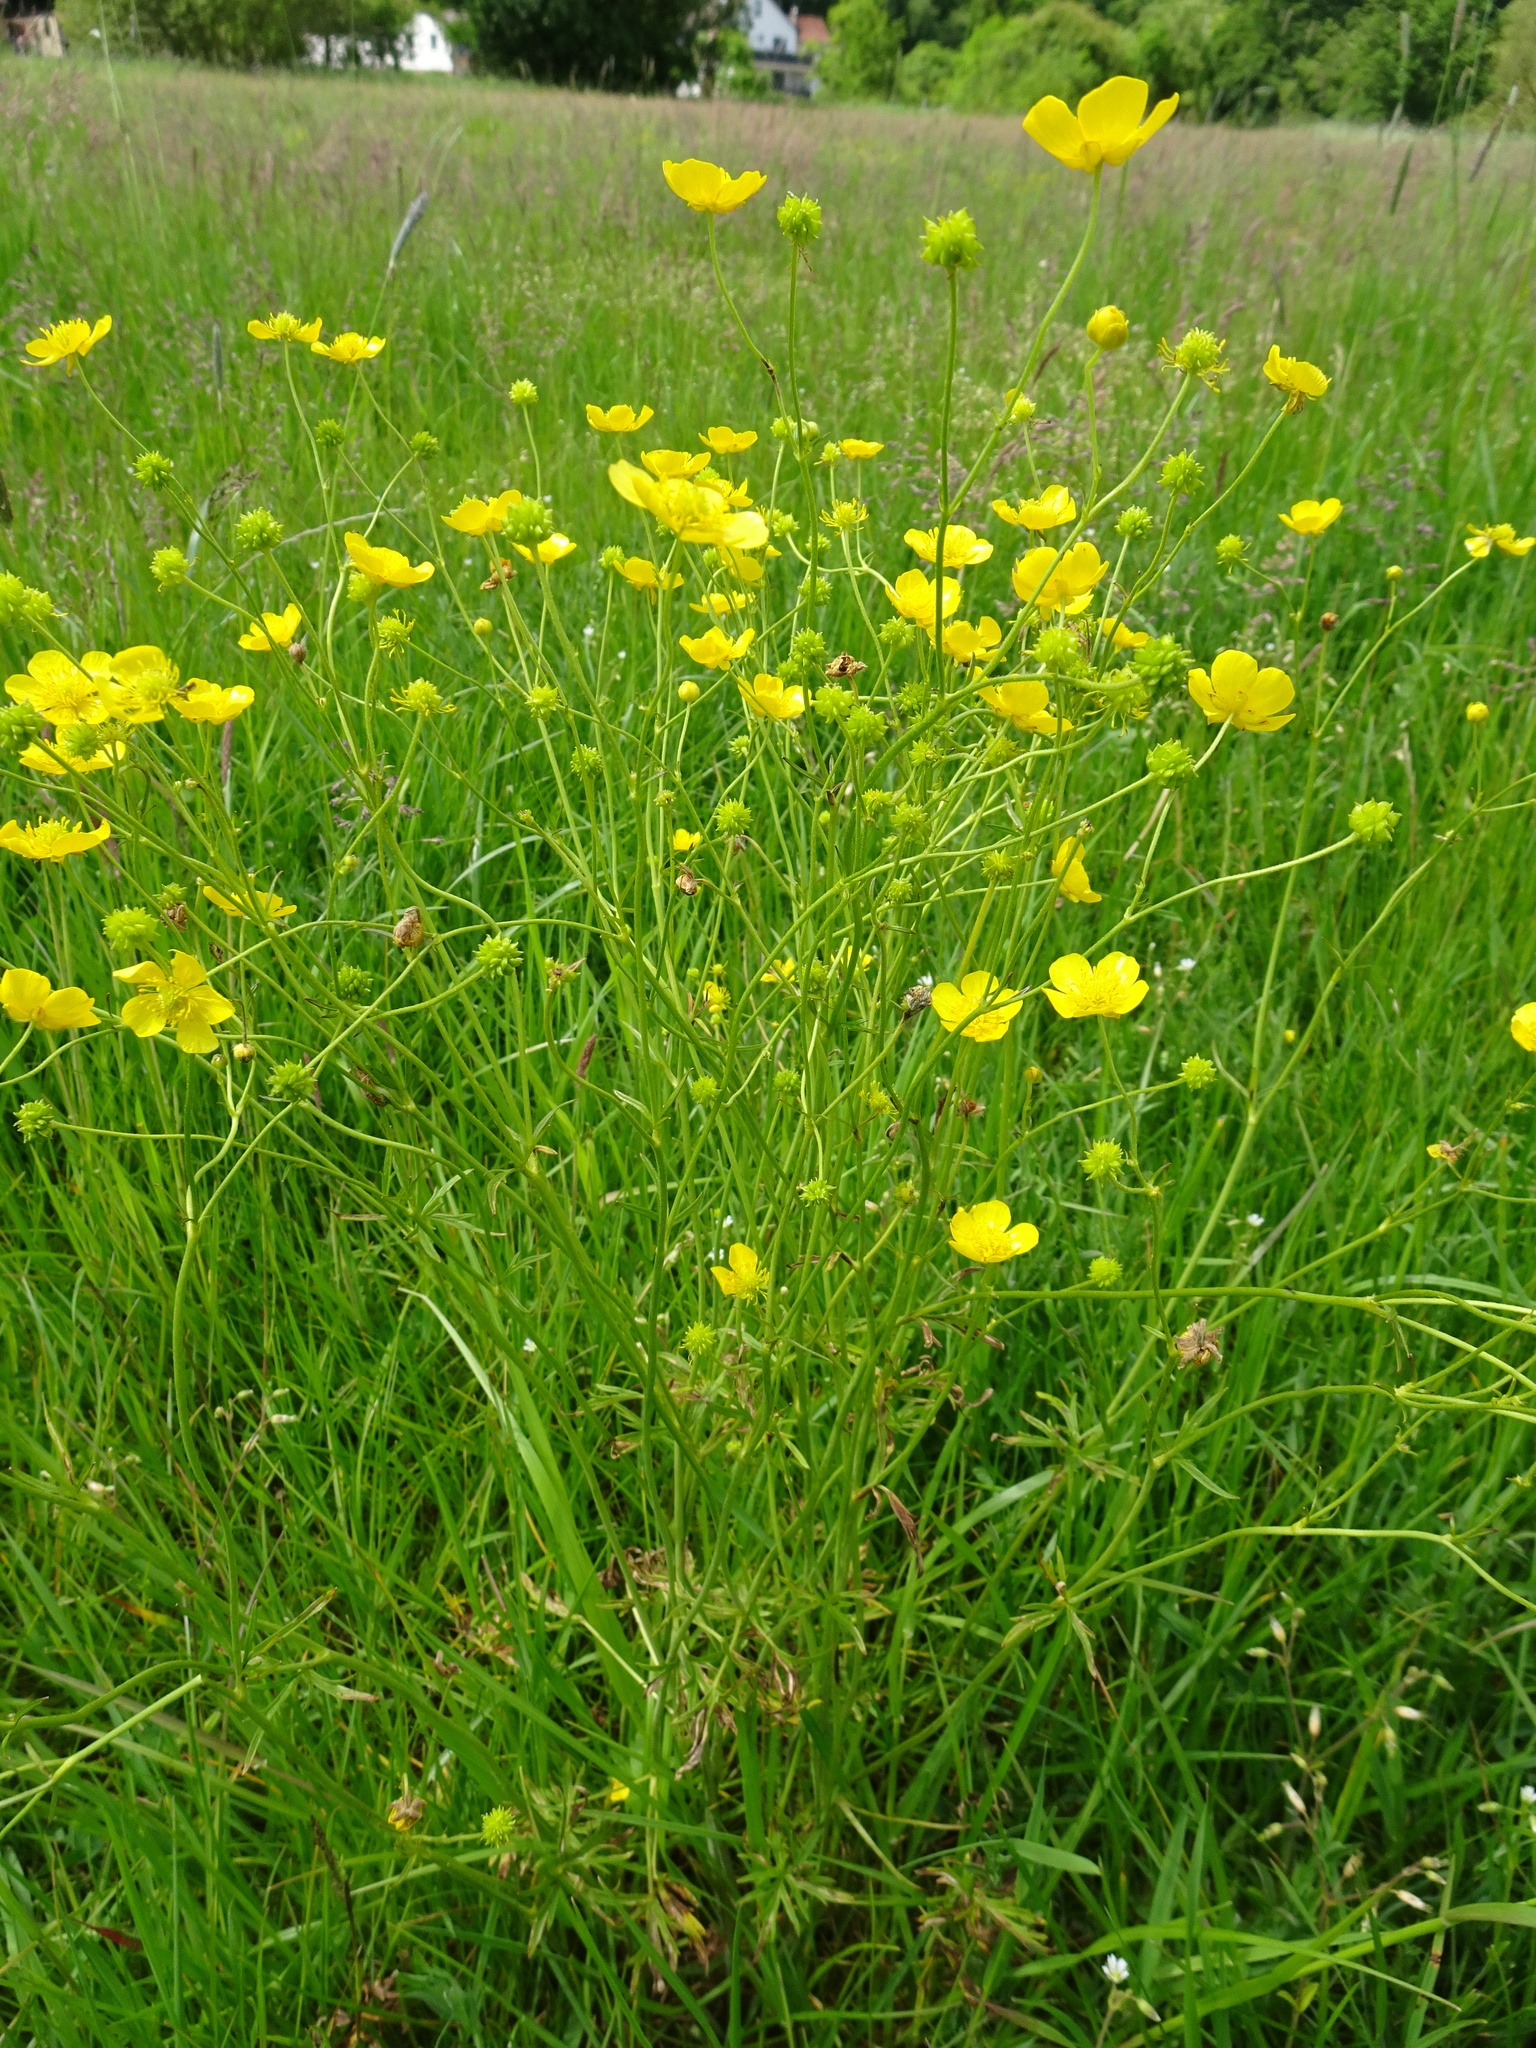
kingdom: Plantae
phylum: Tracheophyta
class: Magnoliopsida
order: Ranunculales
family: Ranunculaceae
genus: Ranunculus
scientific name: Ranunculus acris
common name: Meadow buttercup
